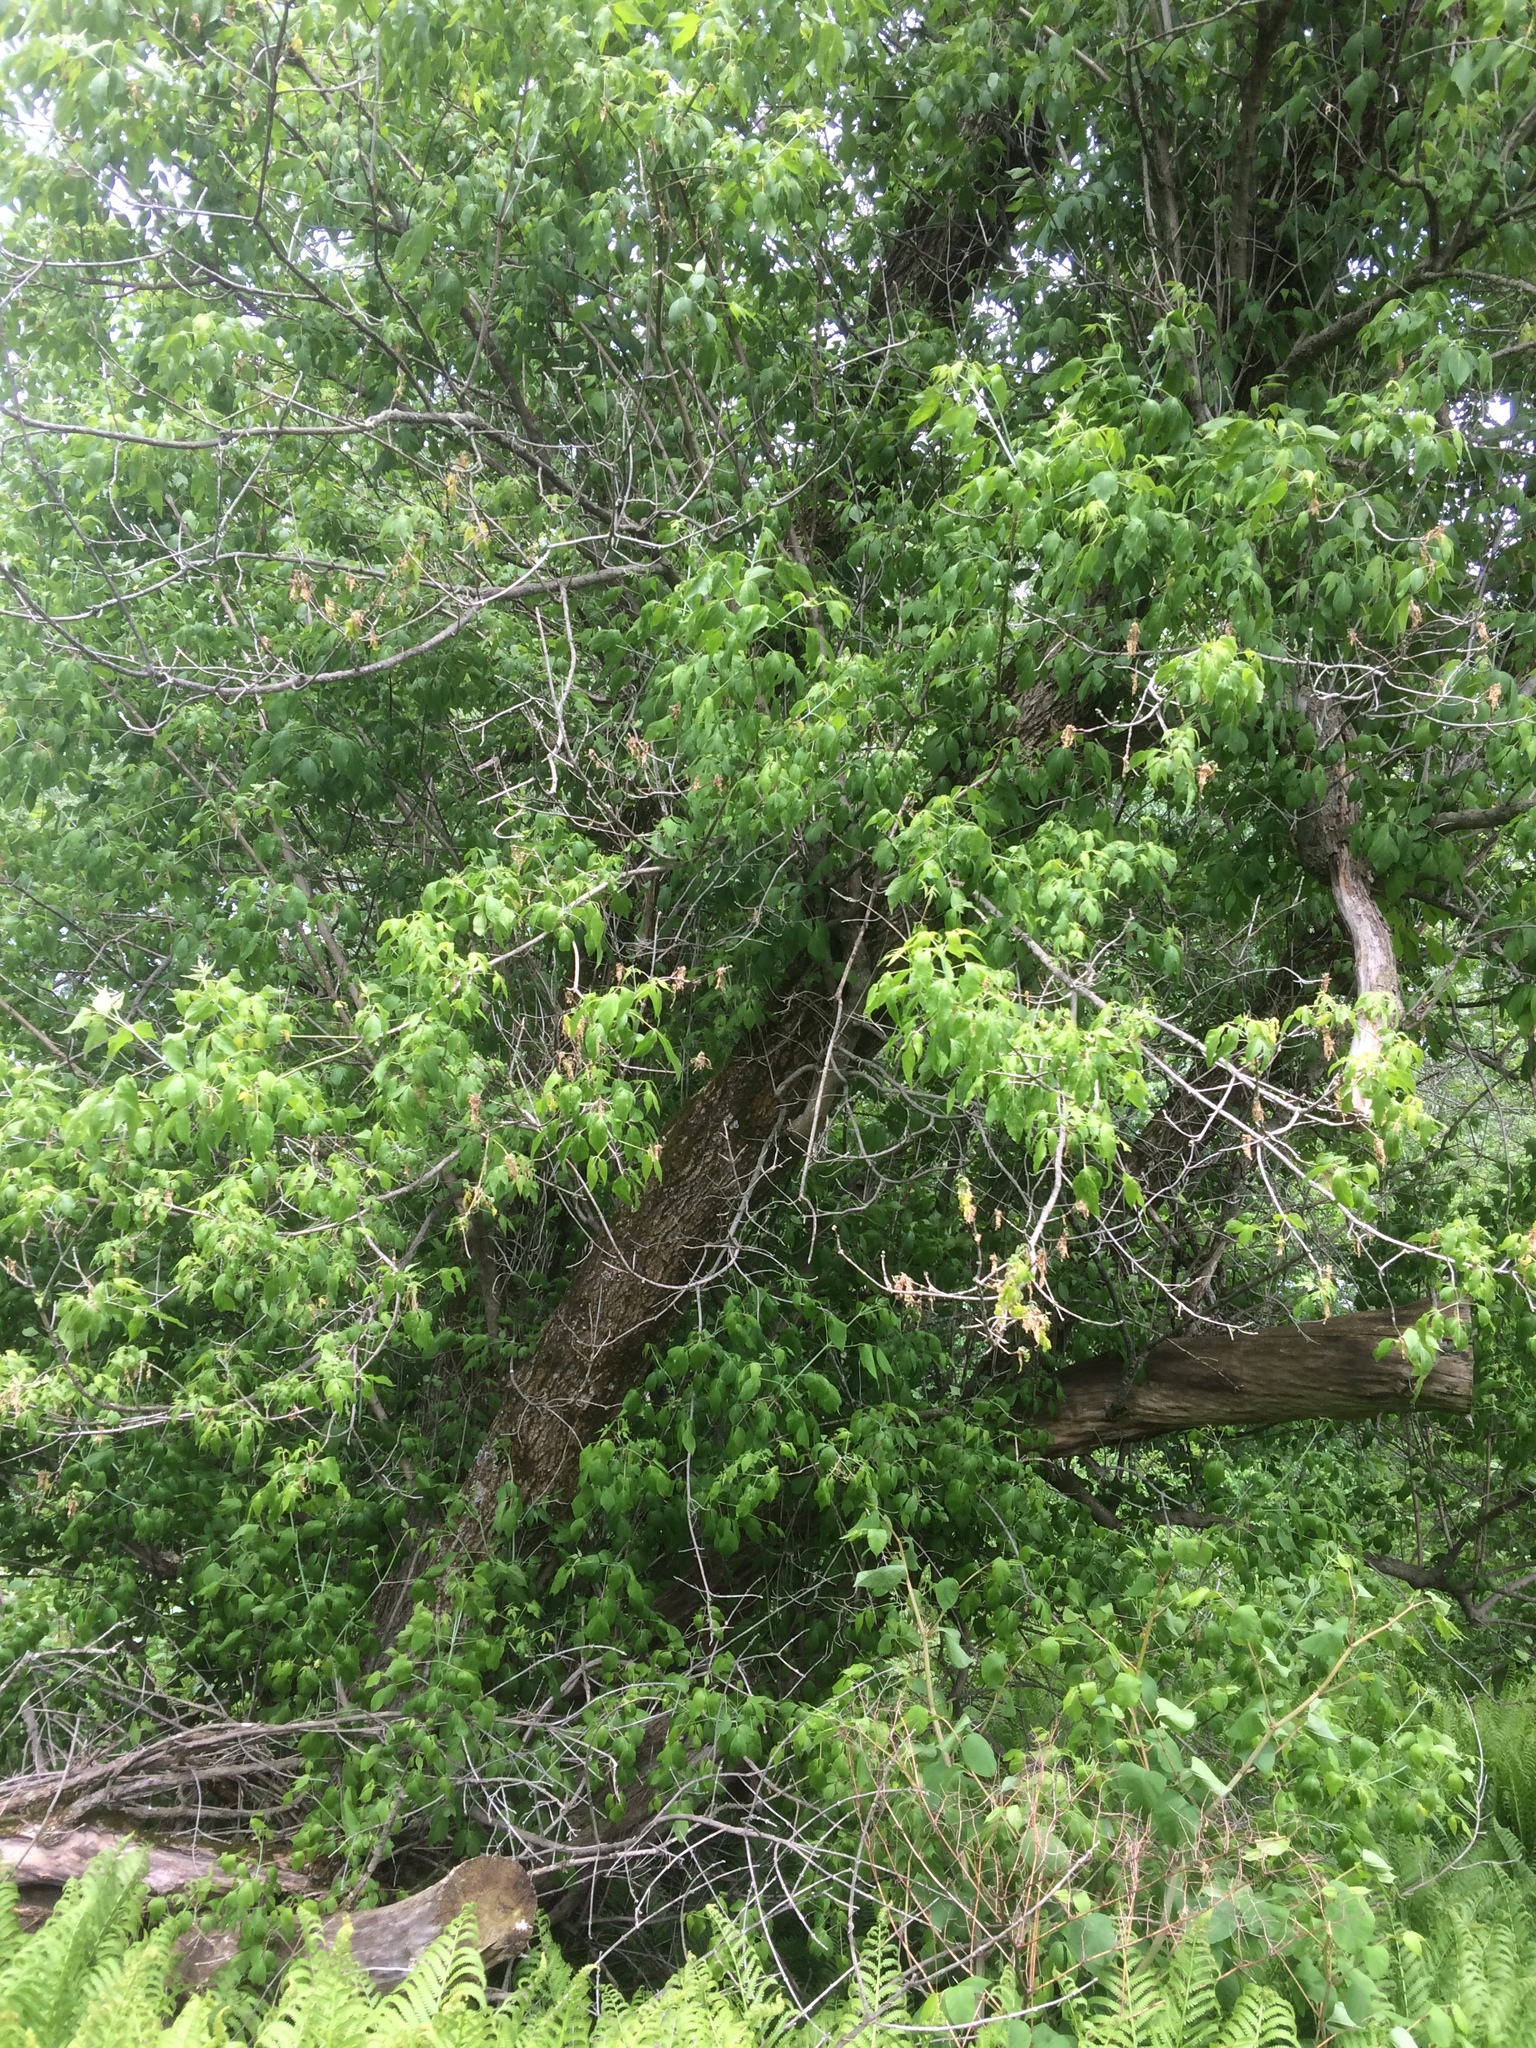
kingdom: Plantae
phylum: Tracheophyta
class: Magnoliopsida
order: Sapindales
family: Sapindaceae
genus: Acer
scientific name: Acer negundo
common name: Ashleaf maple
